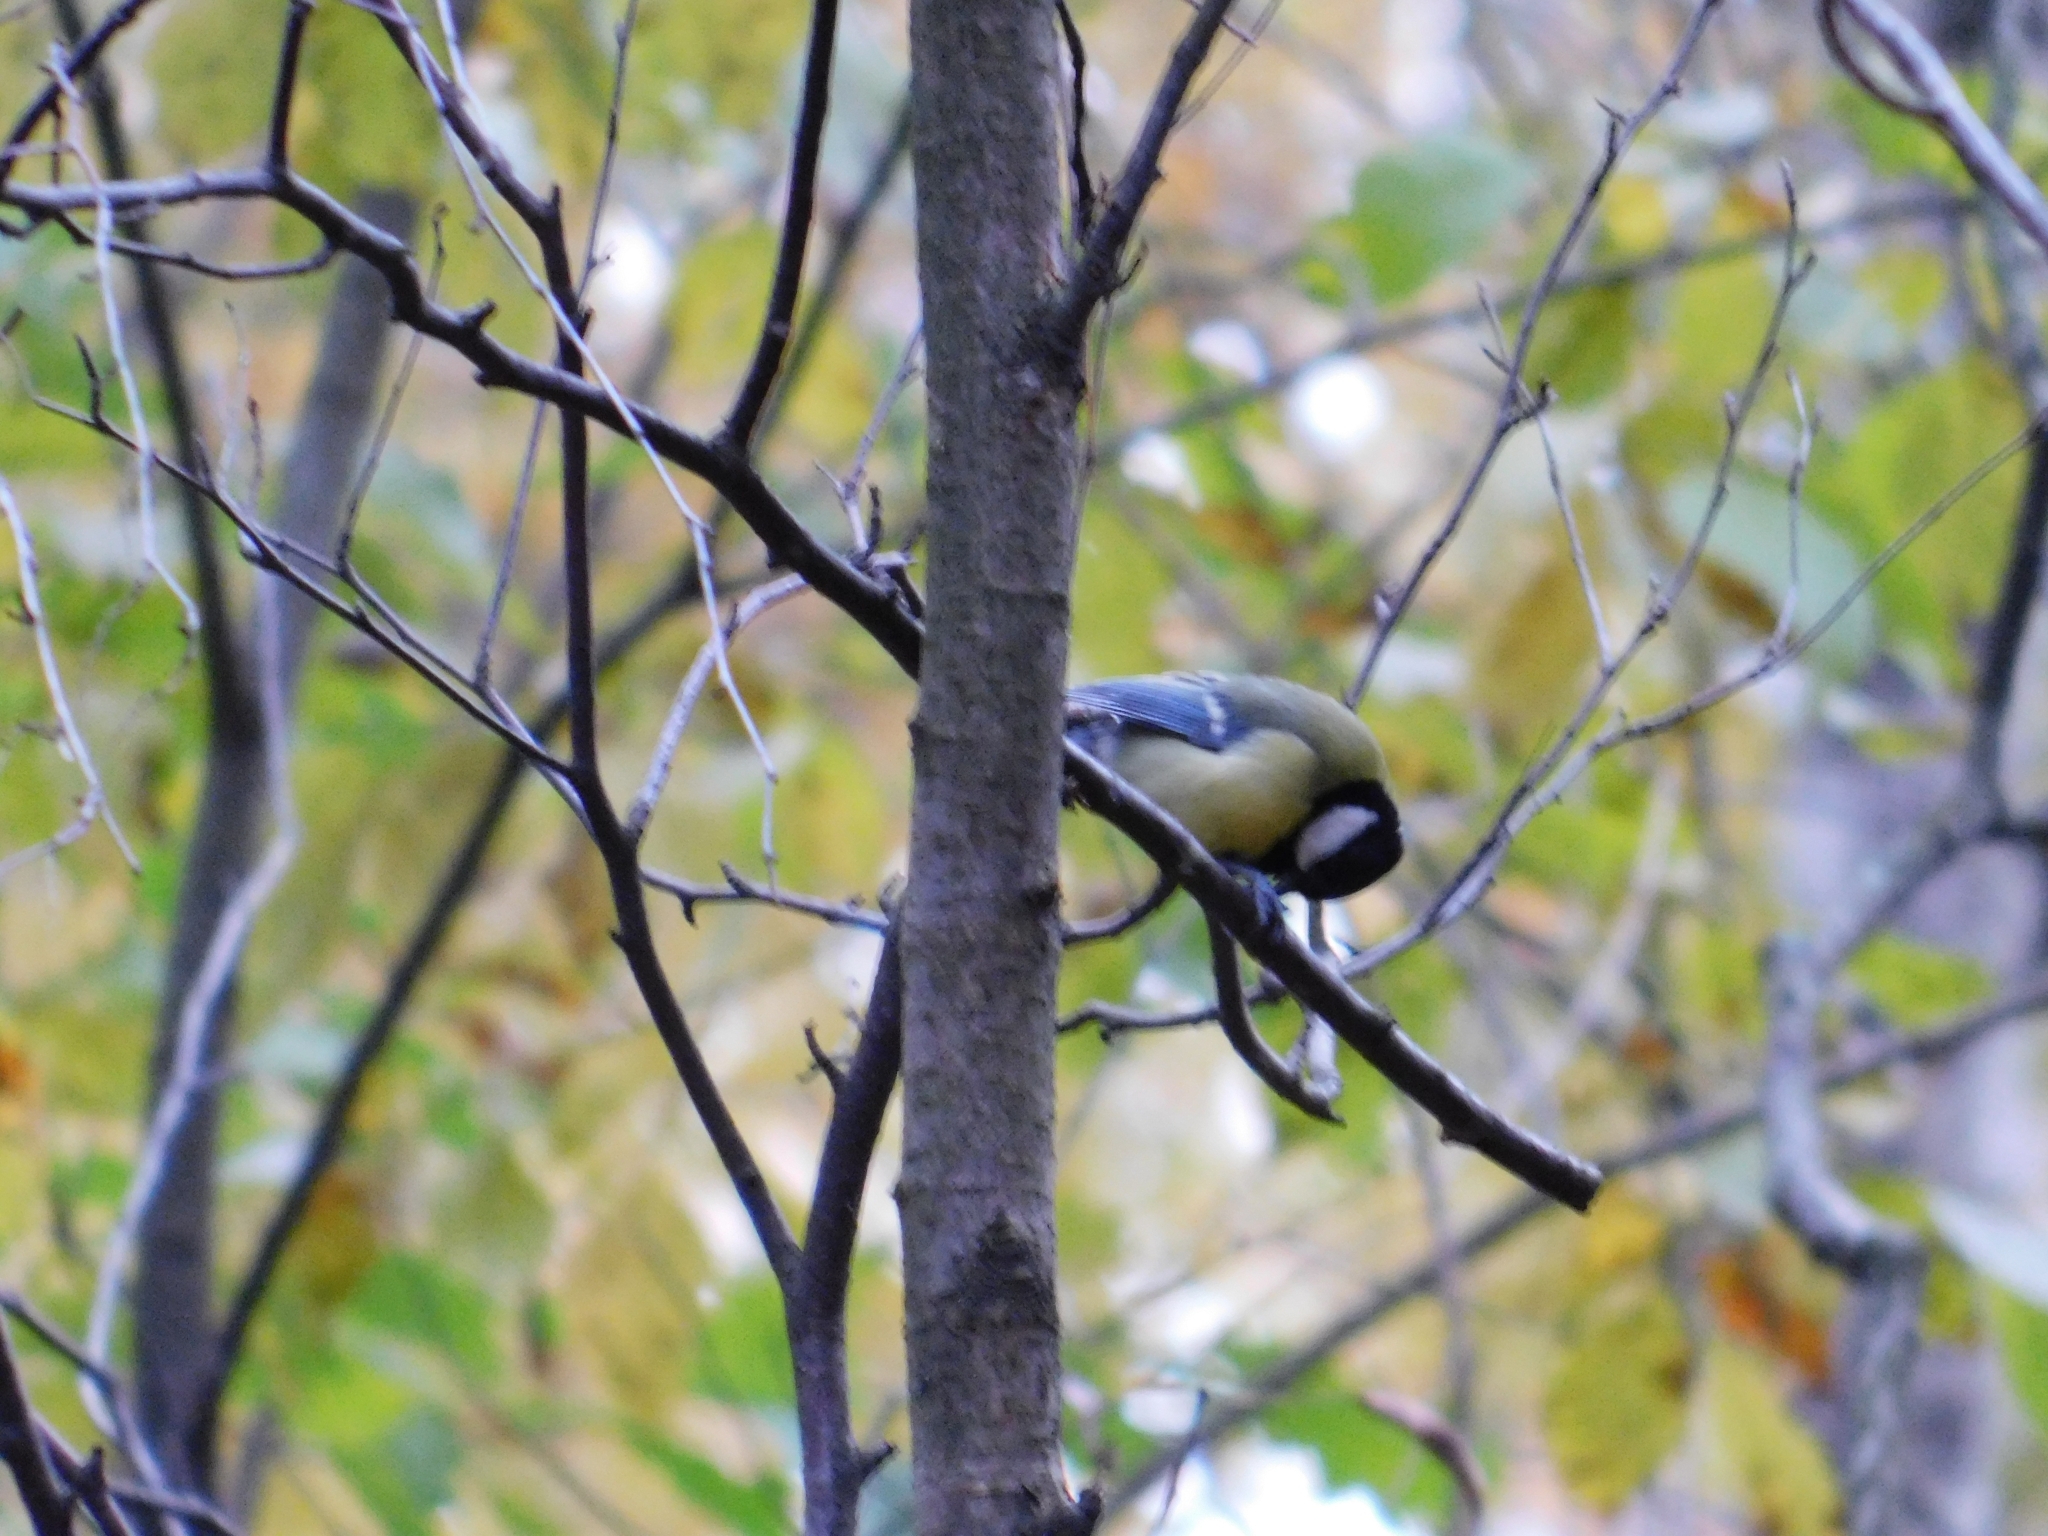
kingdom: Animalia
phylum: Chordata
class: Aves
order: Passeriformes
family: Paridae
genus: Parus
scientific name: Parus major
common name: Great tit
